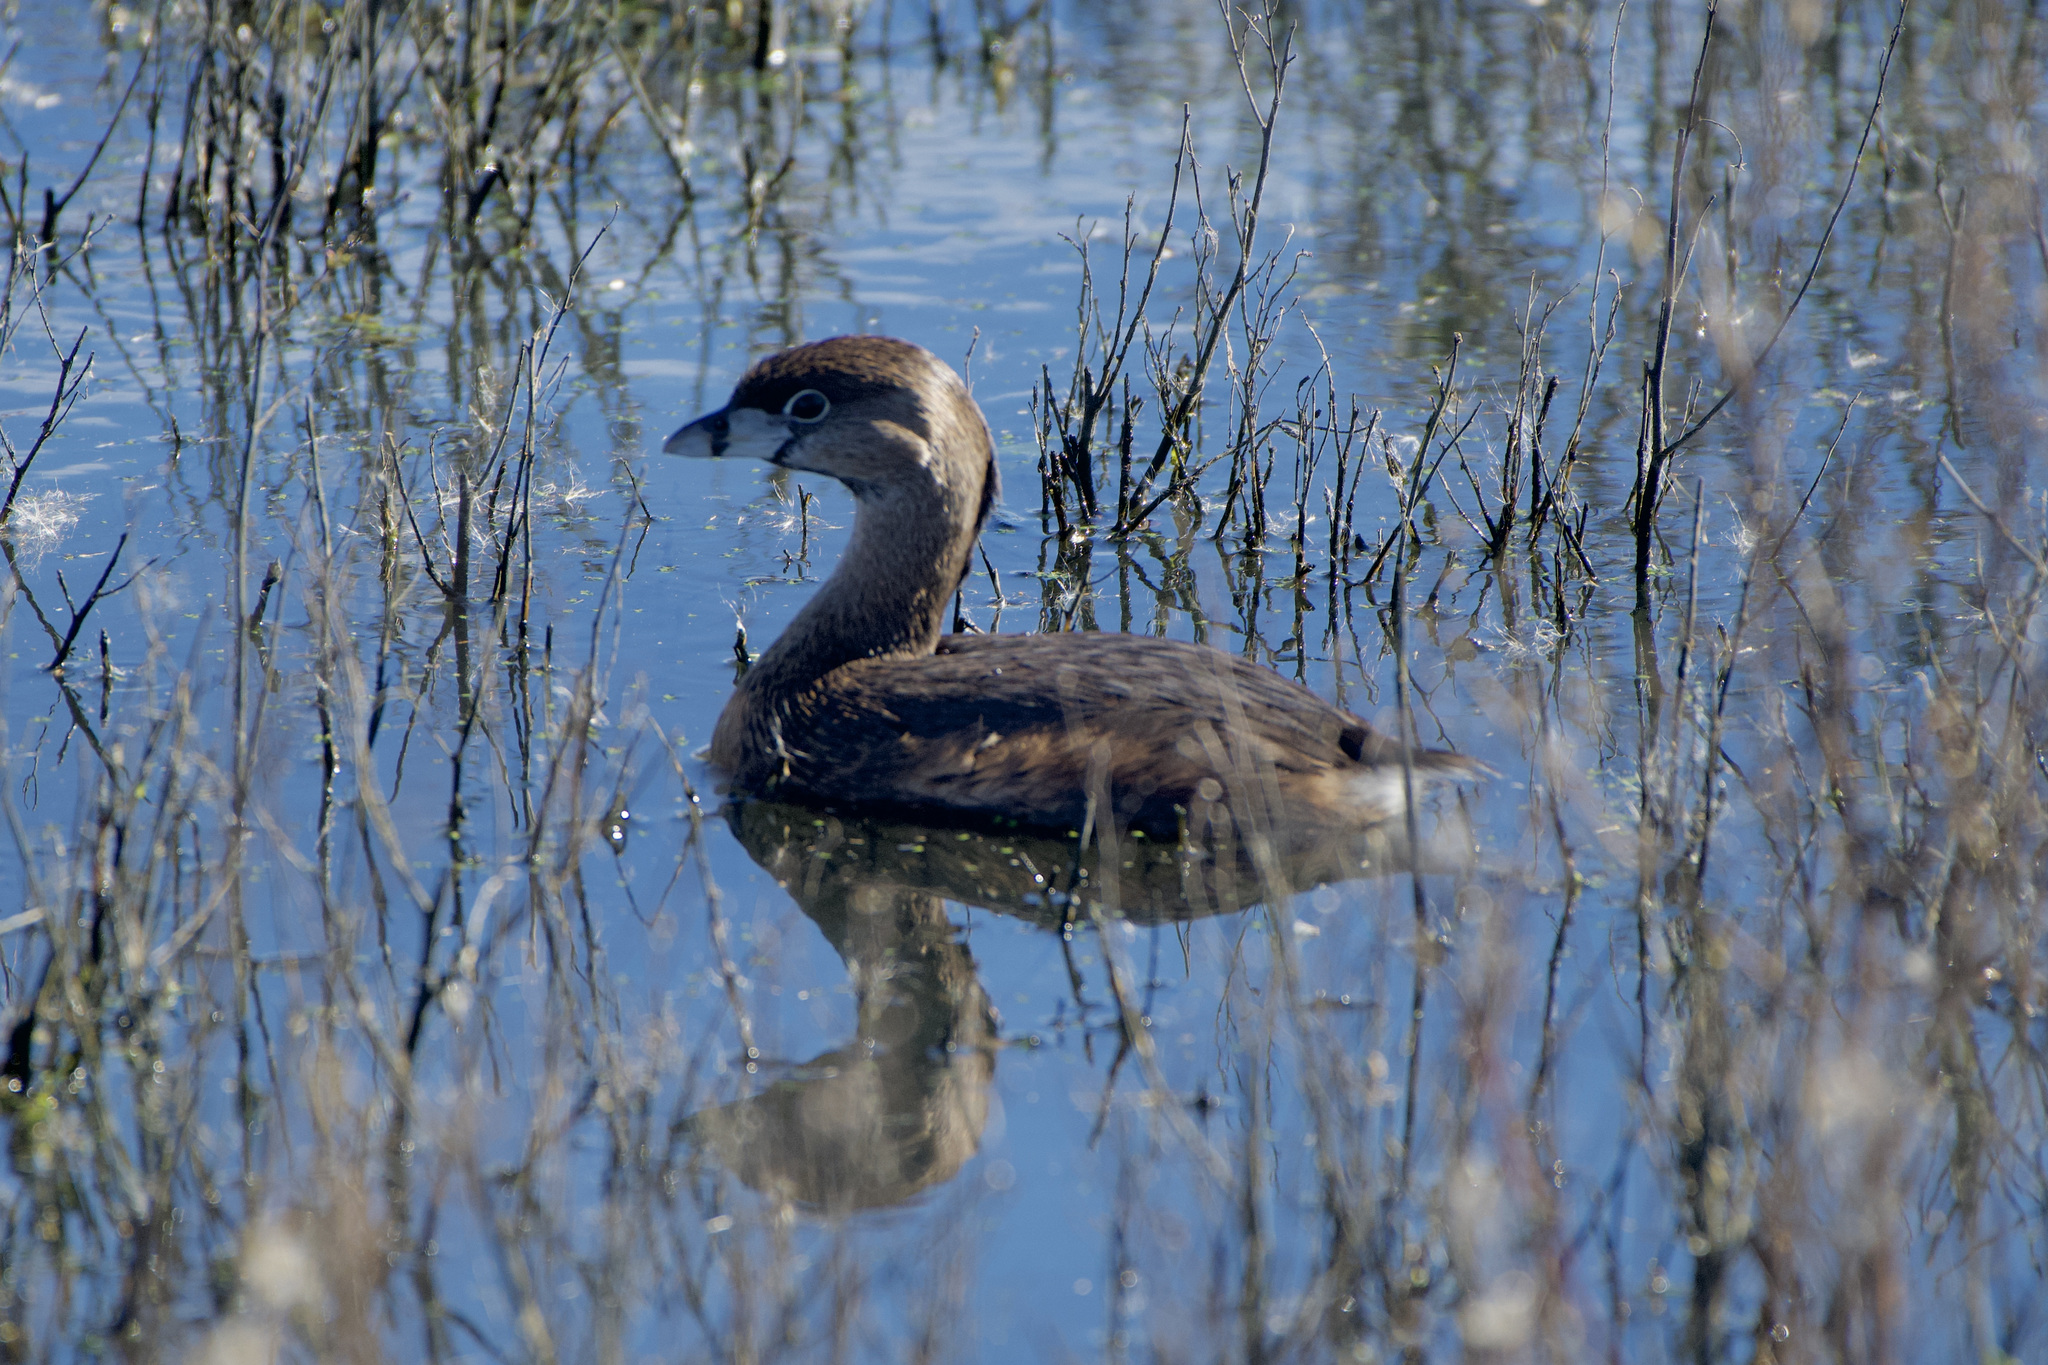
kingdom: Animalia
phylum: Chordata
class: Aves
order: Podicipediformes
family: Podicipedidae
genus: Podilymbus
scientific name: Podilymbus podiceps
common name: Pied-billed grebe
